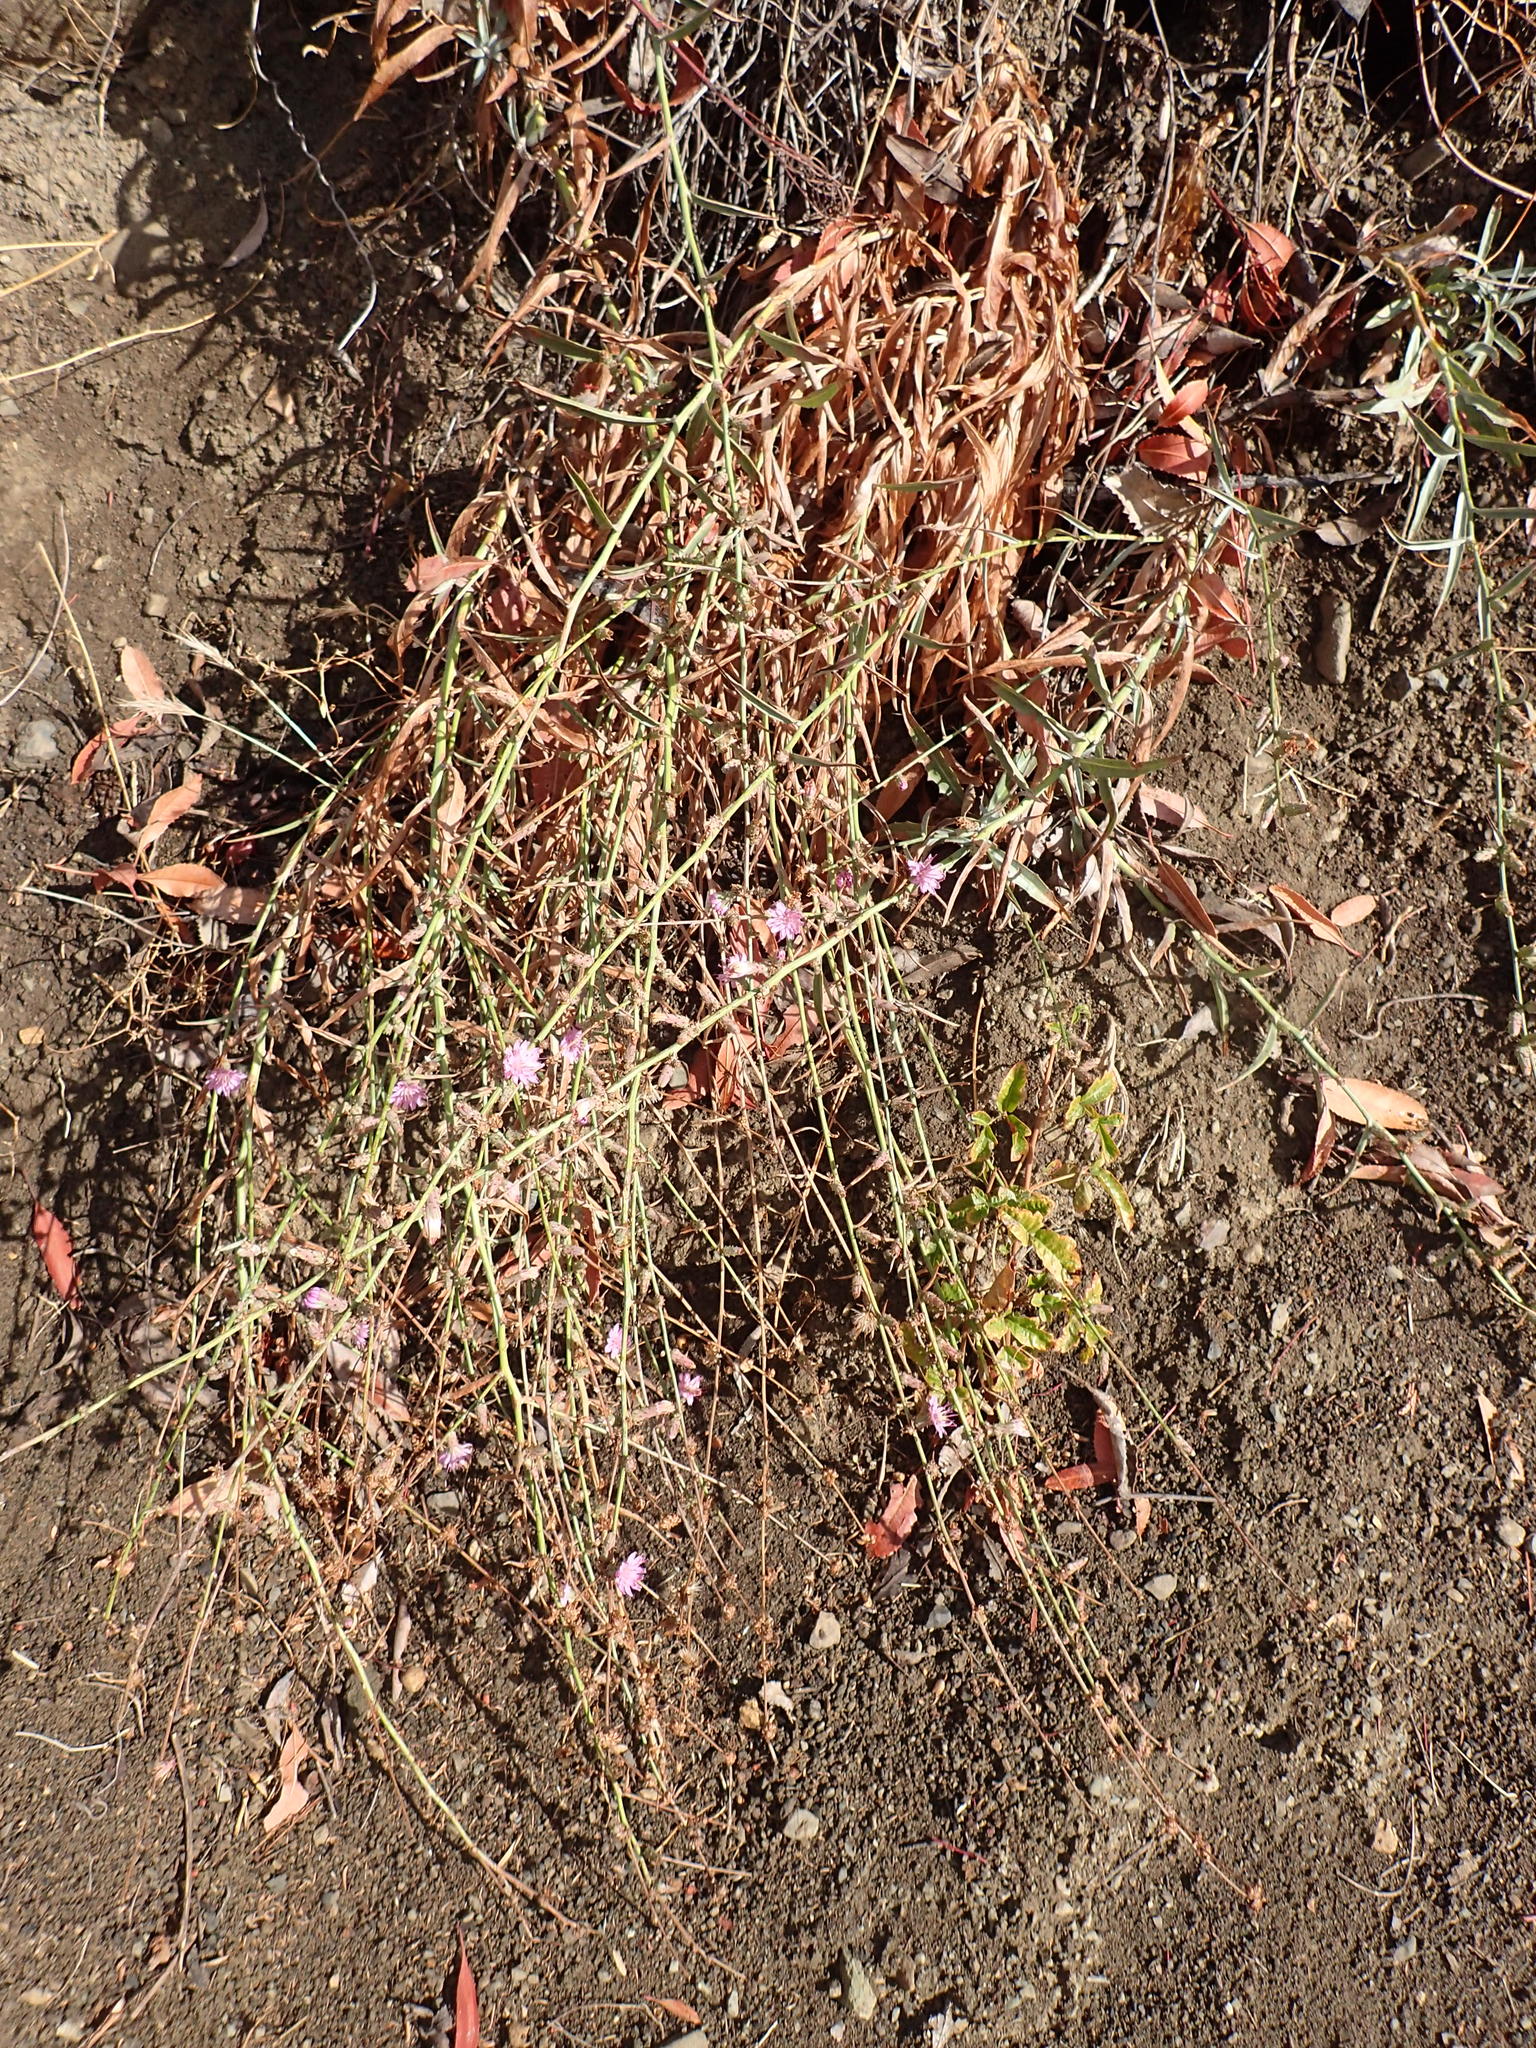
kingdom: Plantae
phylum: Tracheophyta
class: Magnoliopsida
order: Asterales
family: Asteraceae
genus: Stephanomeria
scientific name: Stephanomeria cichoriacea
